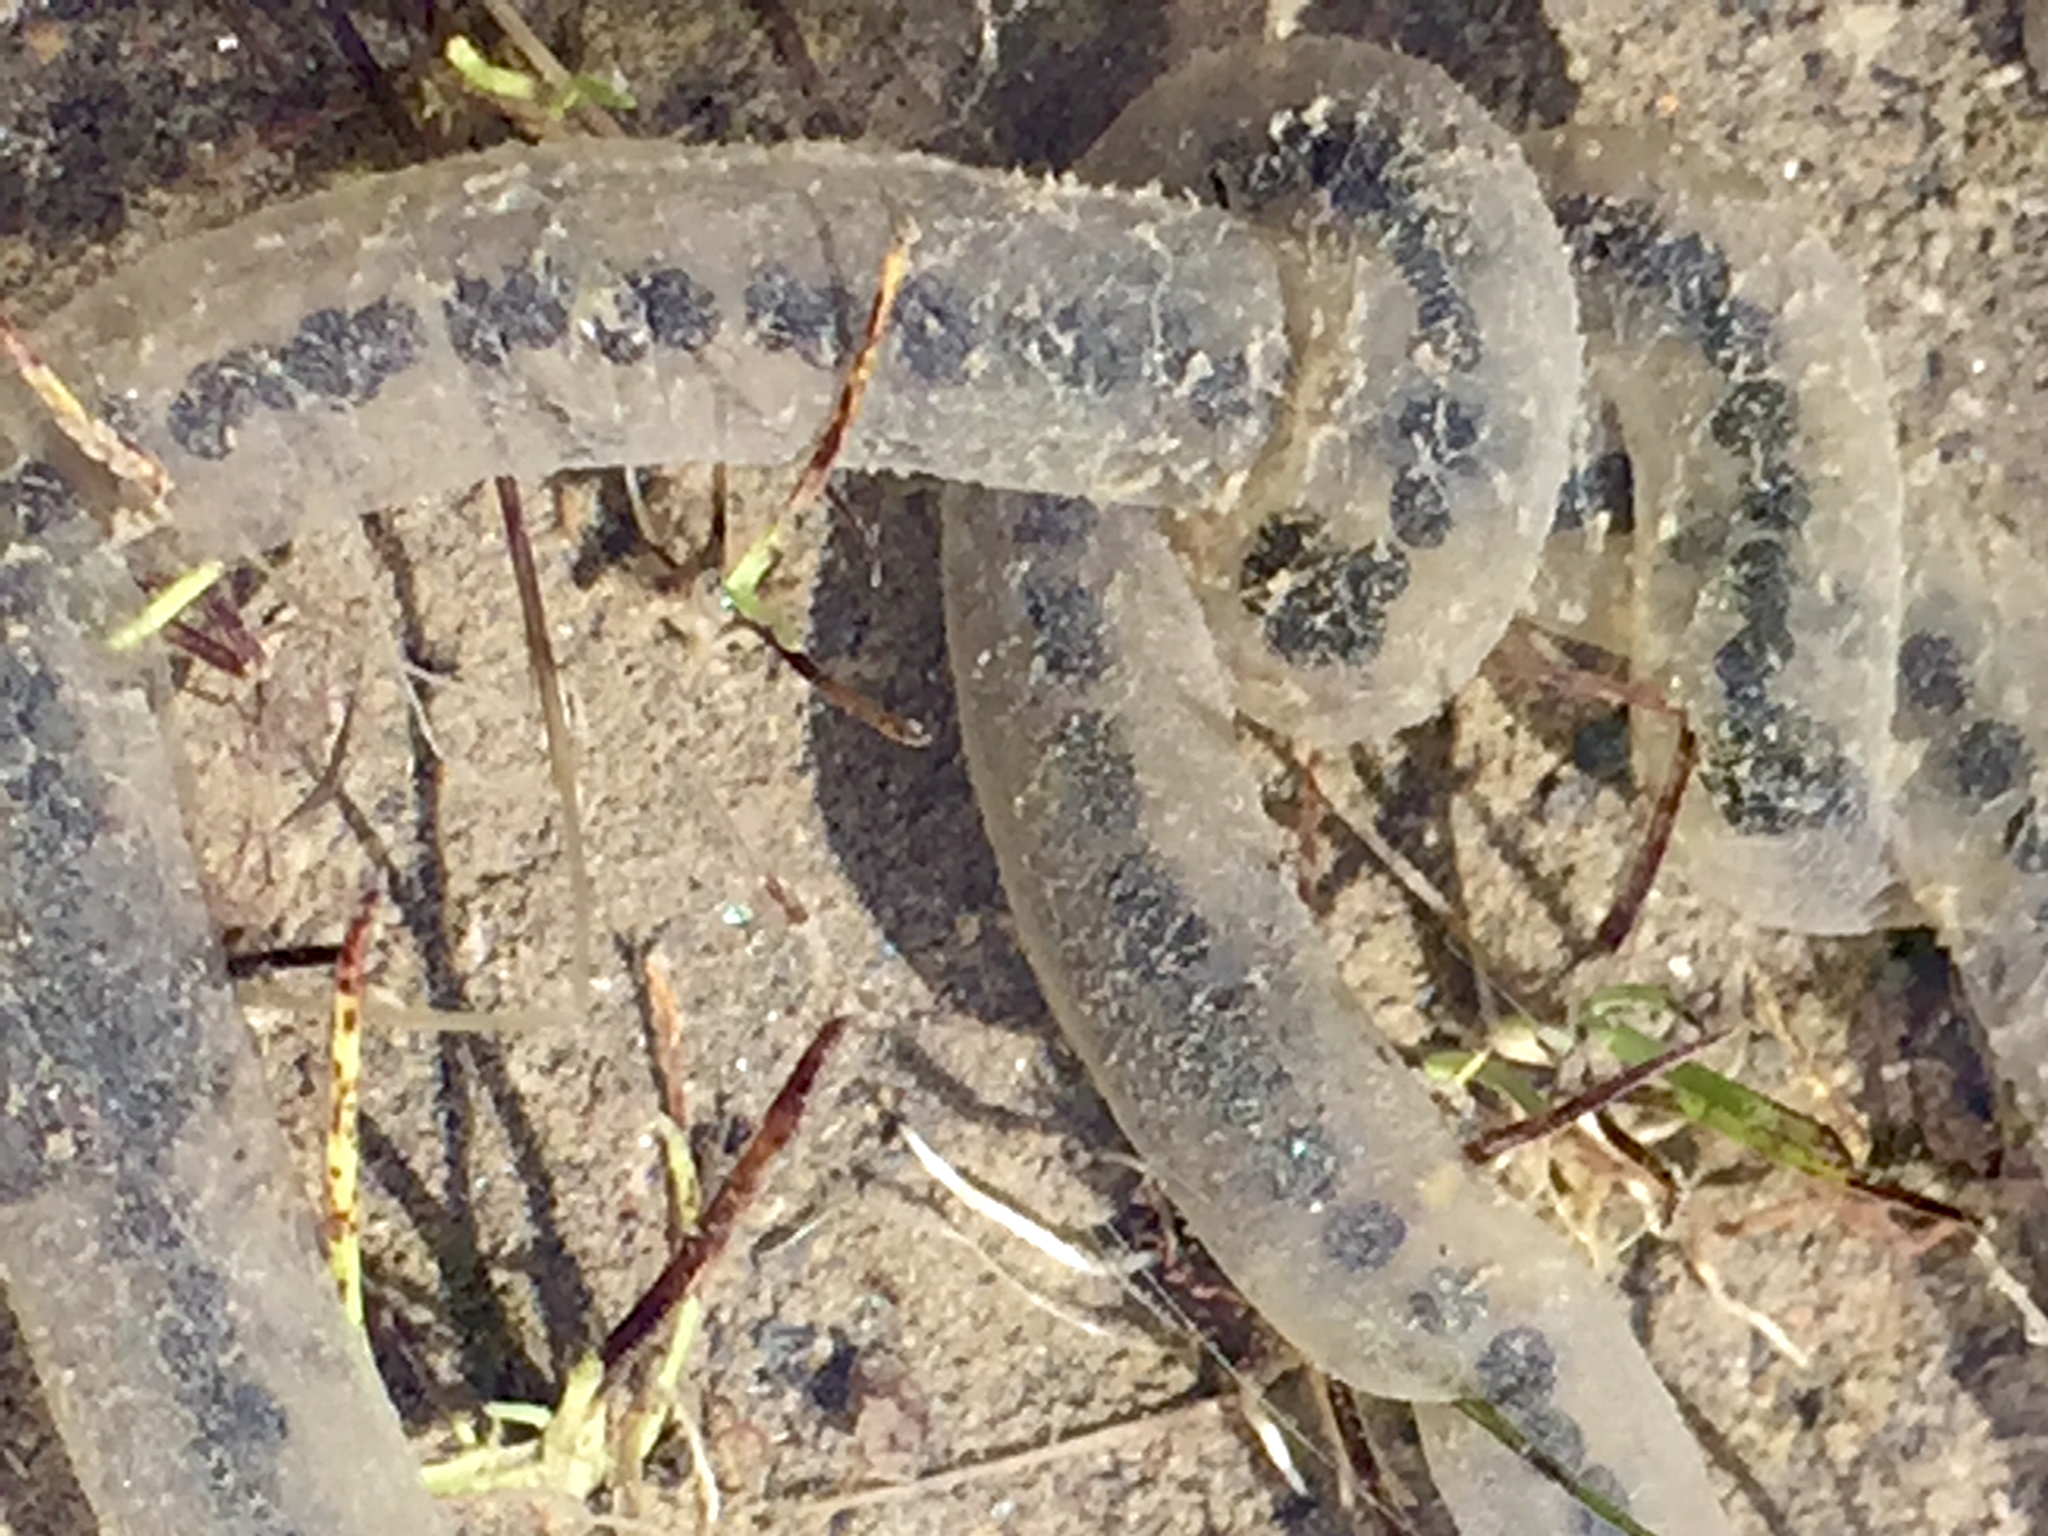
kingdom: Animalia
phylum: Chordata
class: Amphibia
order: Anura
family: Bufonidae
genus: Anaxyrus
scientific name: Anaxyrus boreas
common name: Western toad
